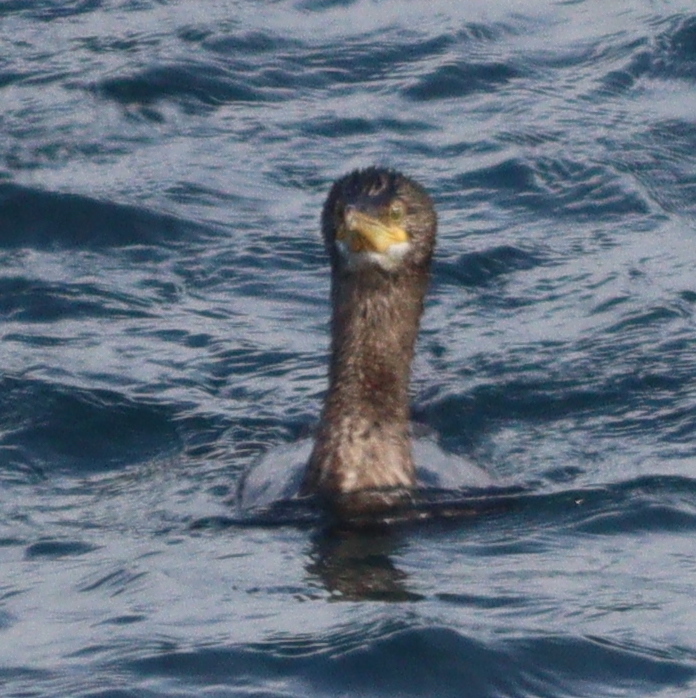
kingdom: Animalia
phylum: Chordata
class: Aves
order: Suliformes
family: Phalacrocoracidae
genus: Phalacrocorax
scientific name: Phalacrocorax aristotelis
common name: European shag
